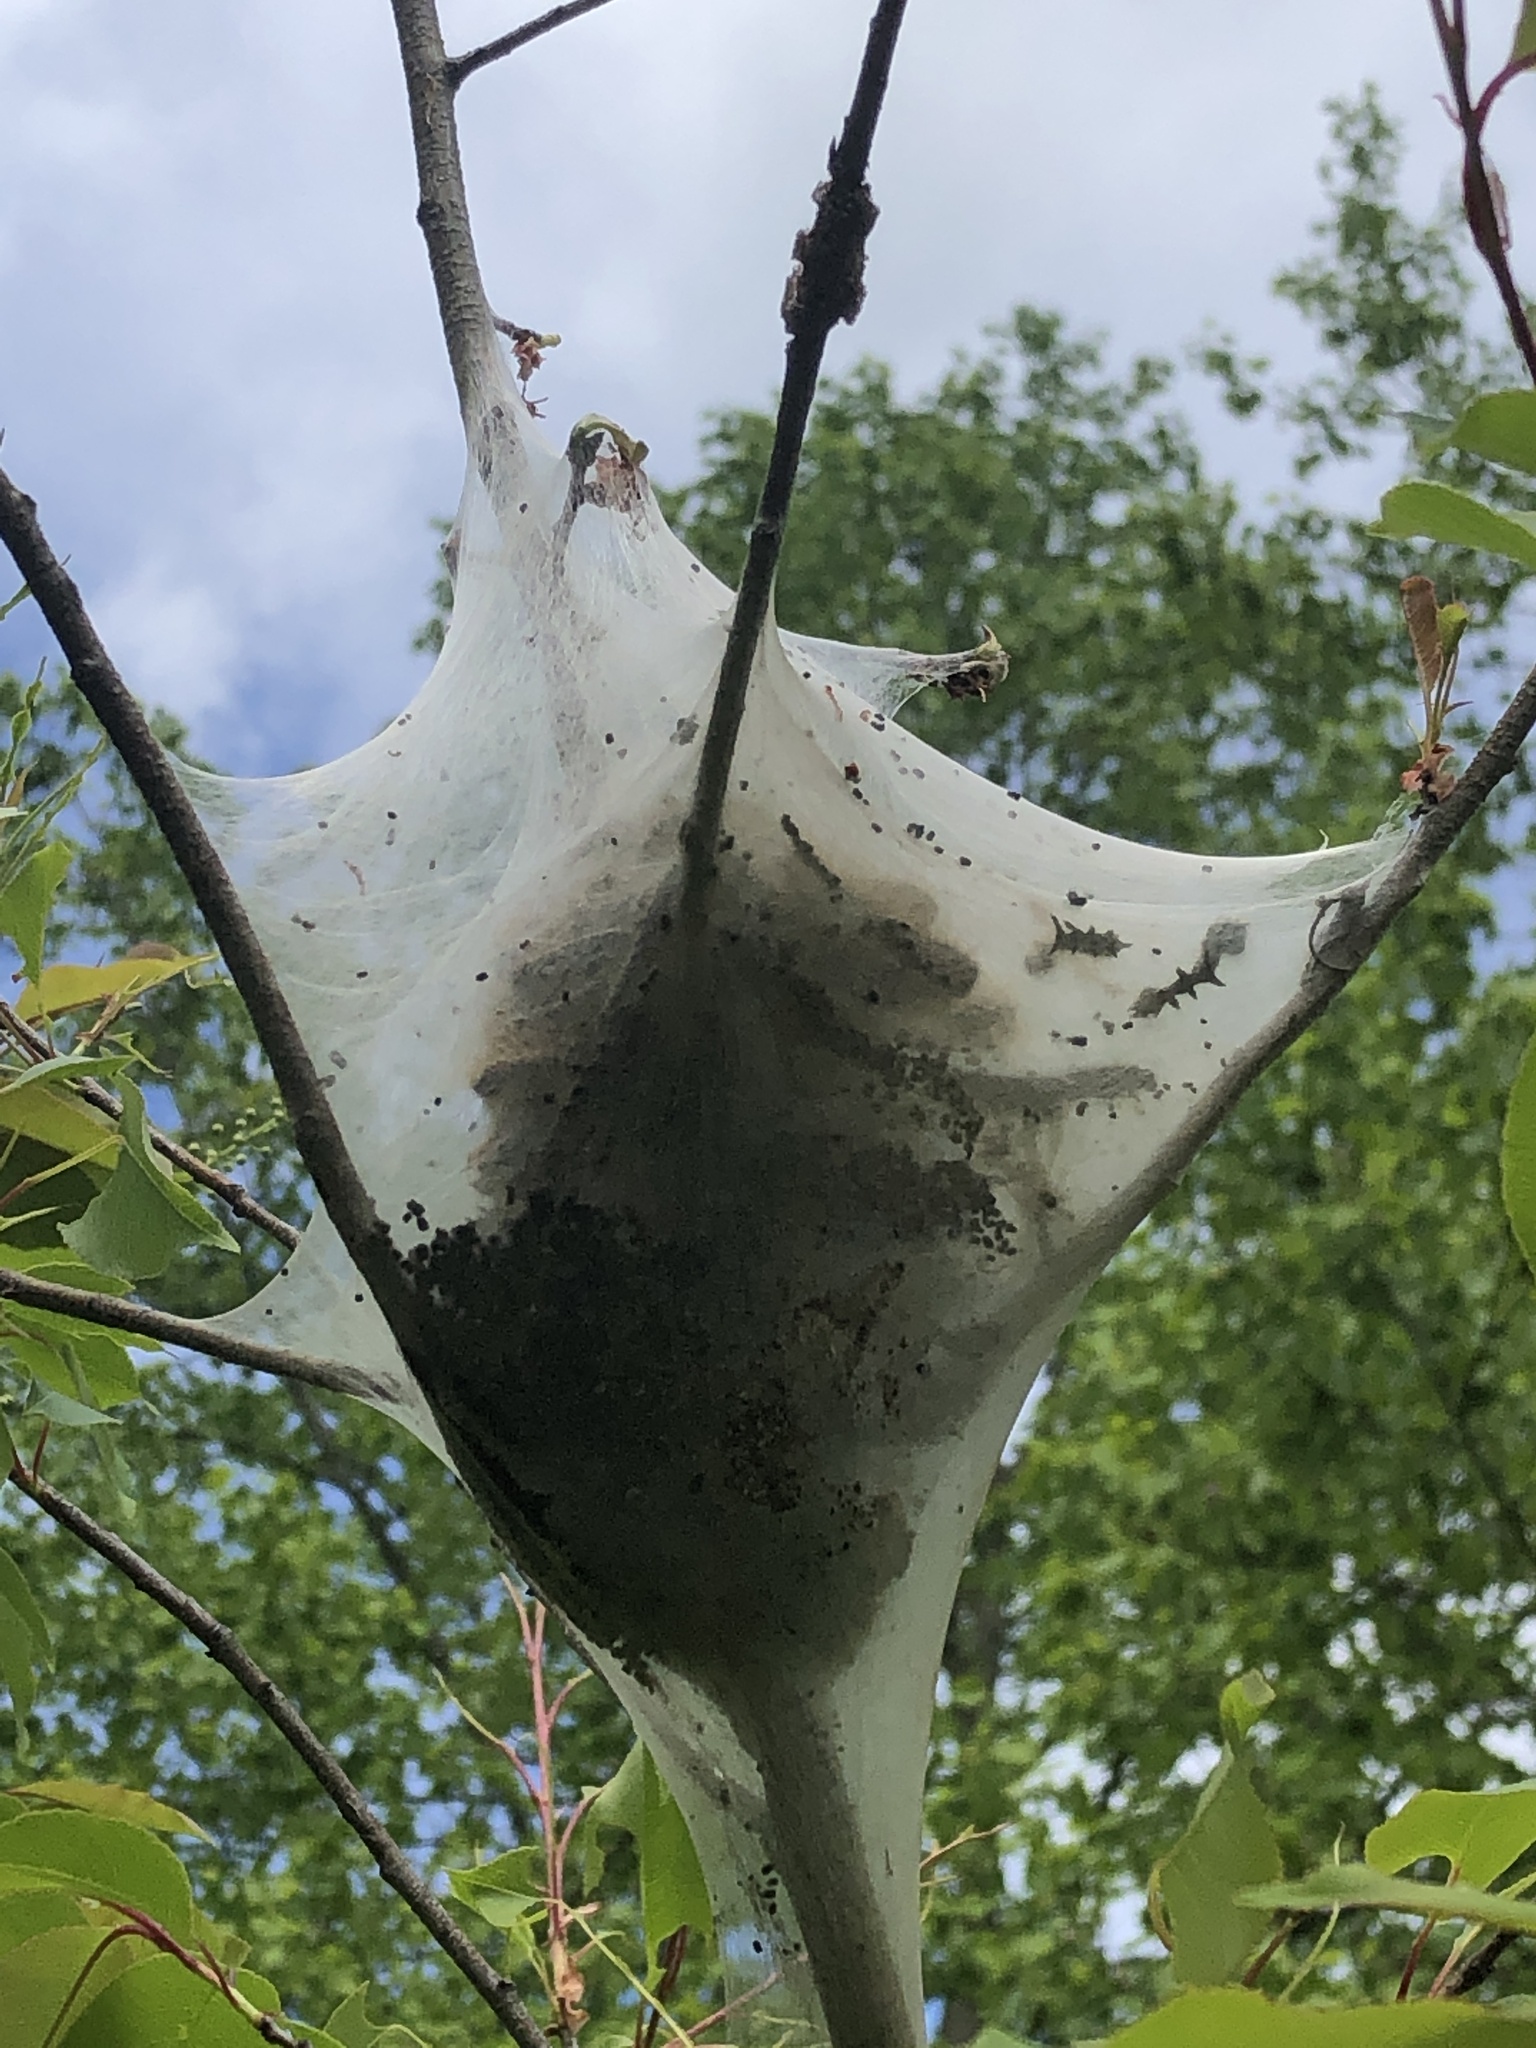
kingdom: Animalia
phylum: Arthropoda
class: Insecta
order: Lepidoptera
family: Lasiocampidae
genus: Malacosoma
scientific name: Malacosoma americana
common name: Eastern tent caterpillar moth
